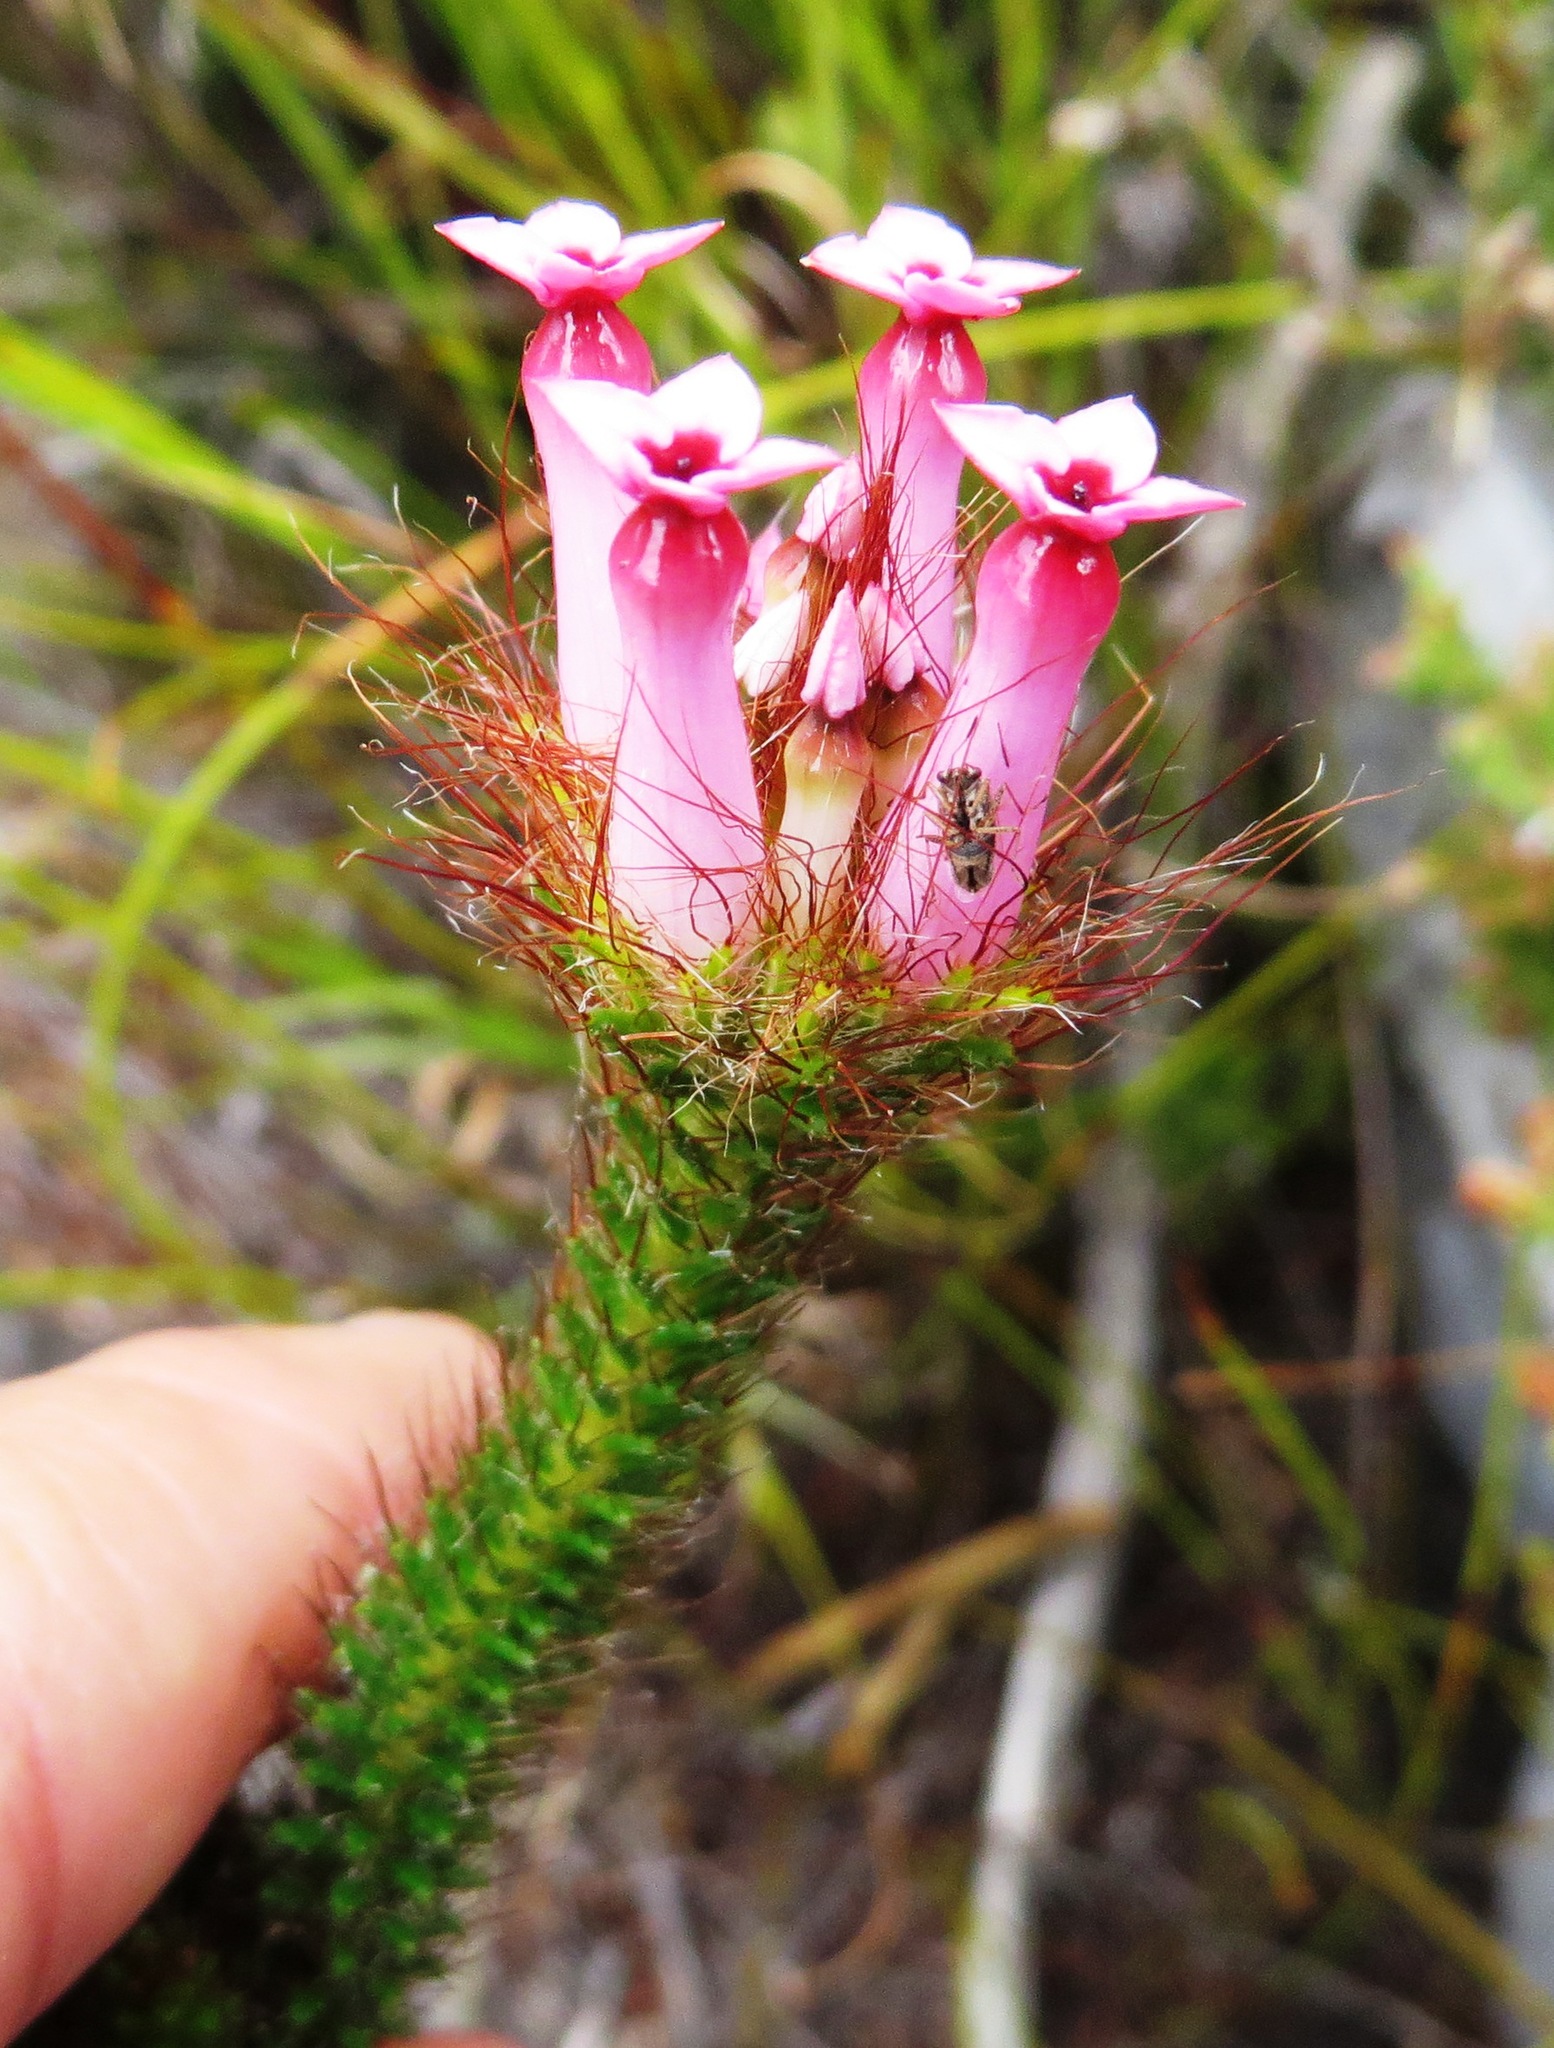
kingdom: Plantae
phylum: Tracheophyta
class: Magnoliopsida
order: Ericales
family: Ericaceae
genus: Erica
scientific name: Erica gysbertii
